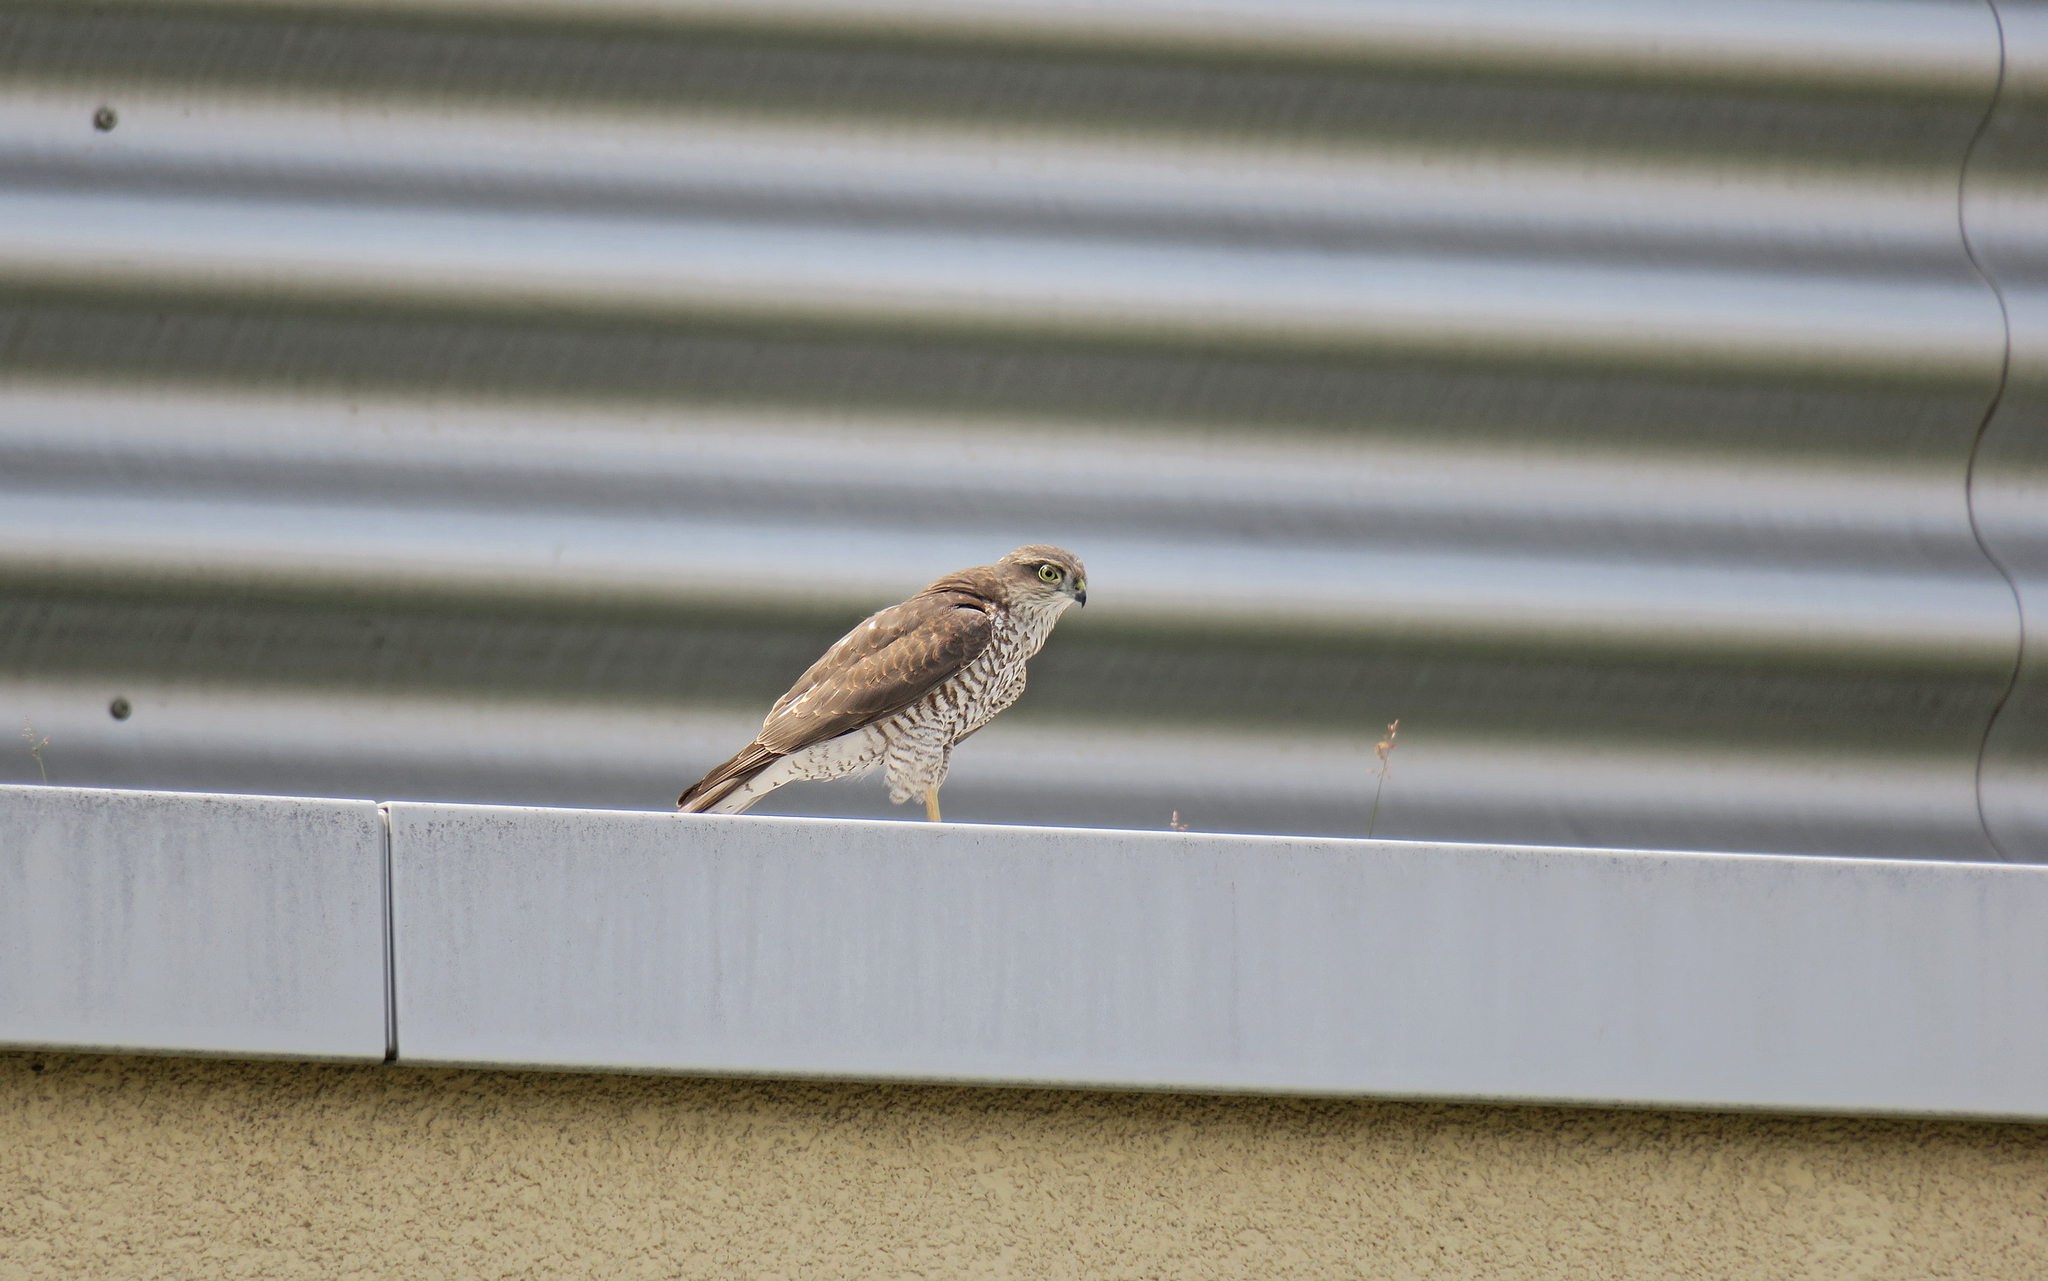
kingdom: Animalia
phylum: Chordata
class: Aves
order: Accipitriformes
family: Accipitridae
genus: Accipiter
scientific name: Accipiter nisus
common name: Eurasian sparrowhawk
